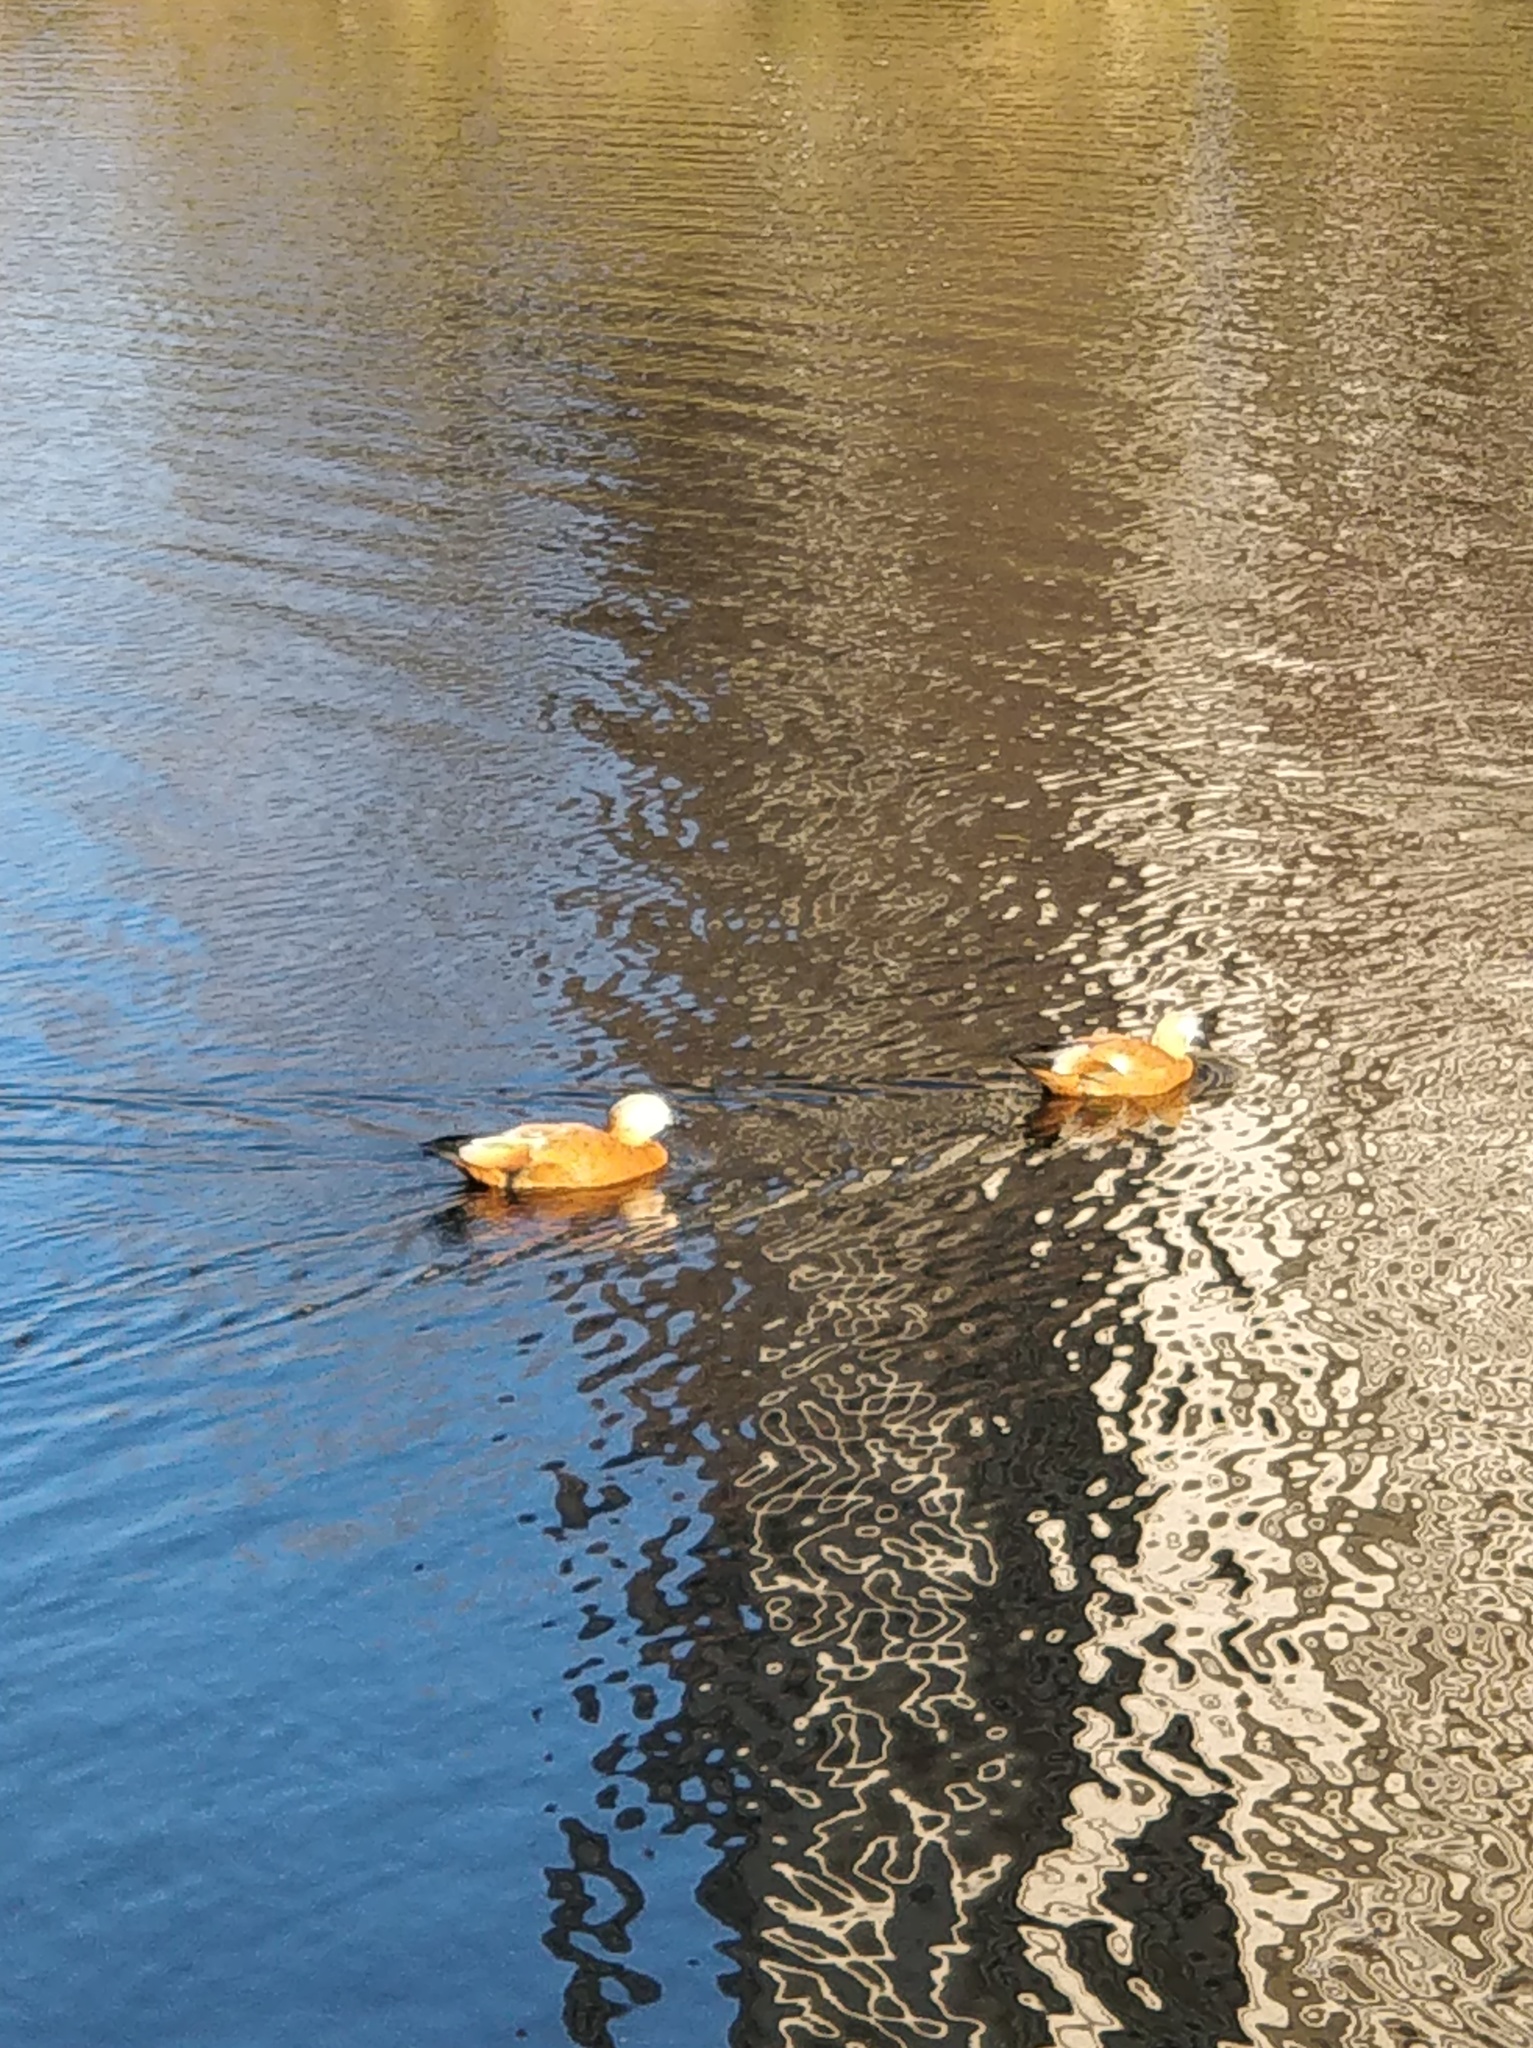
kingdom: Animalia
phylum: Chordata
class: Aves
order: Anseriformes
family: Anatidae
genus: Tadorna
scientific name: Tadorna ferruginea
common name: Ruddy shelduck
